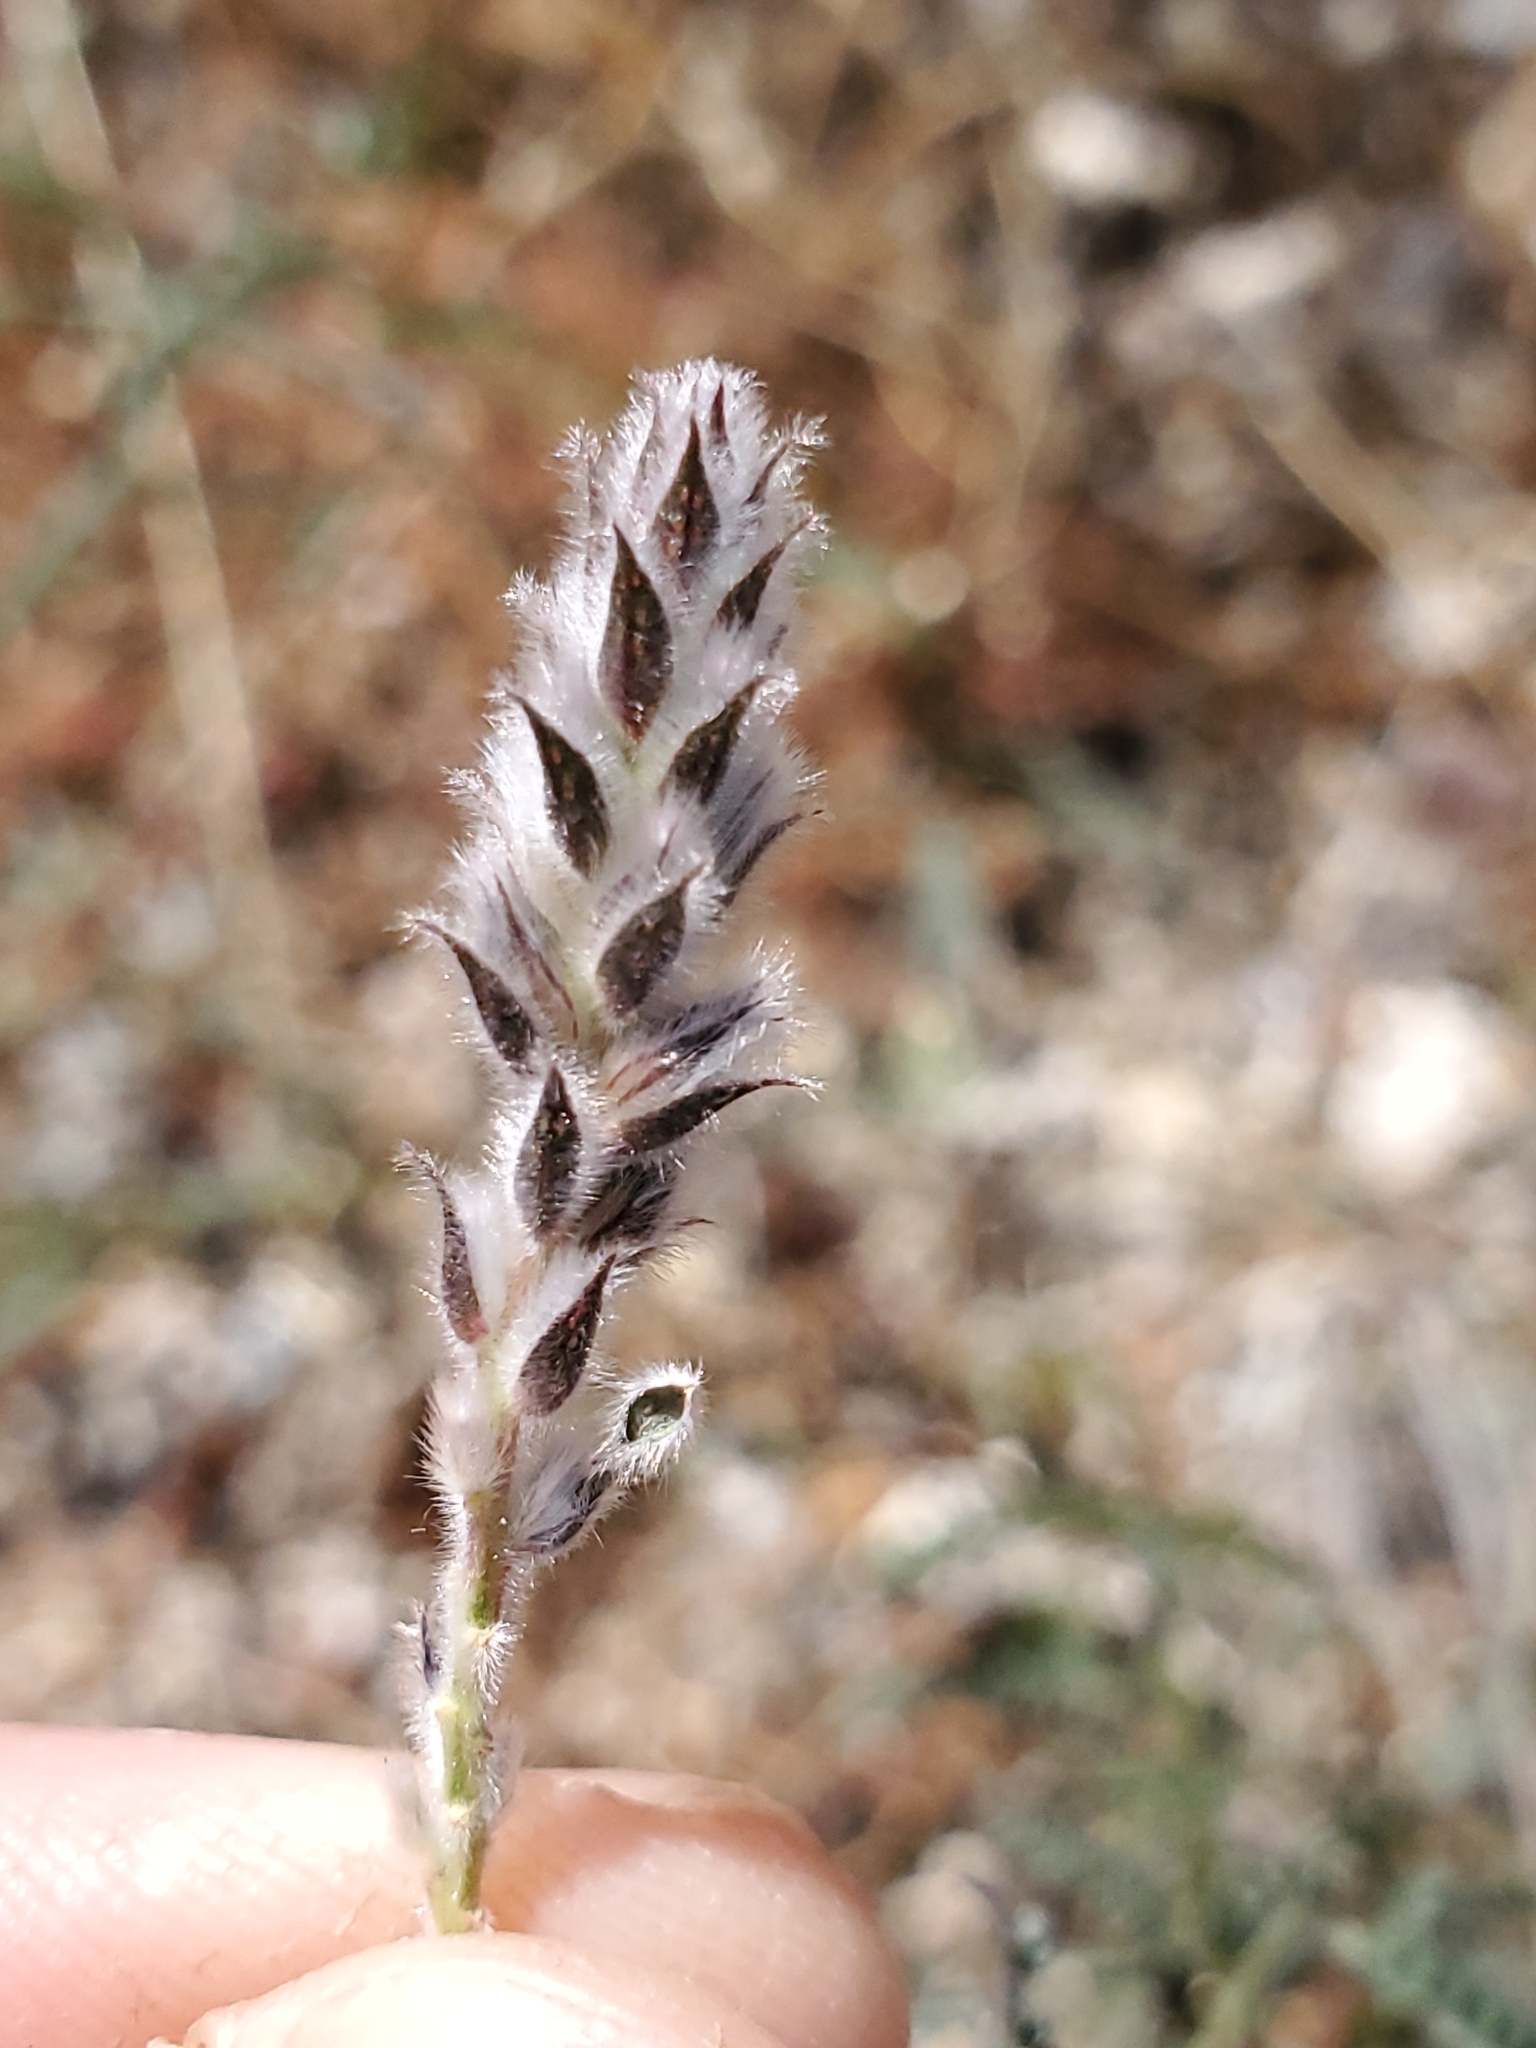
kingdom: Plantae
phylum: Tracheophyta
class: Magnoliopsida
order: Fabales
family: Fabaceae
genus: Dalea
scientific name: Dalea pringlei
